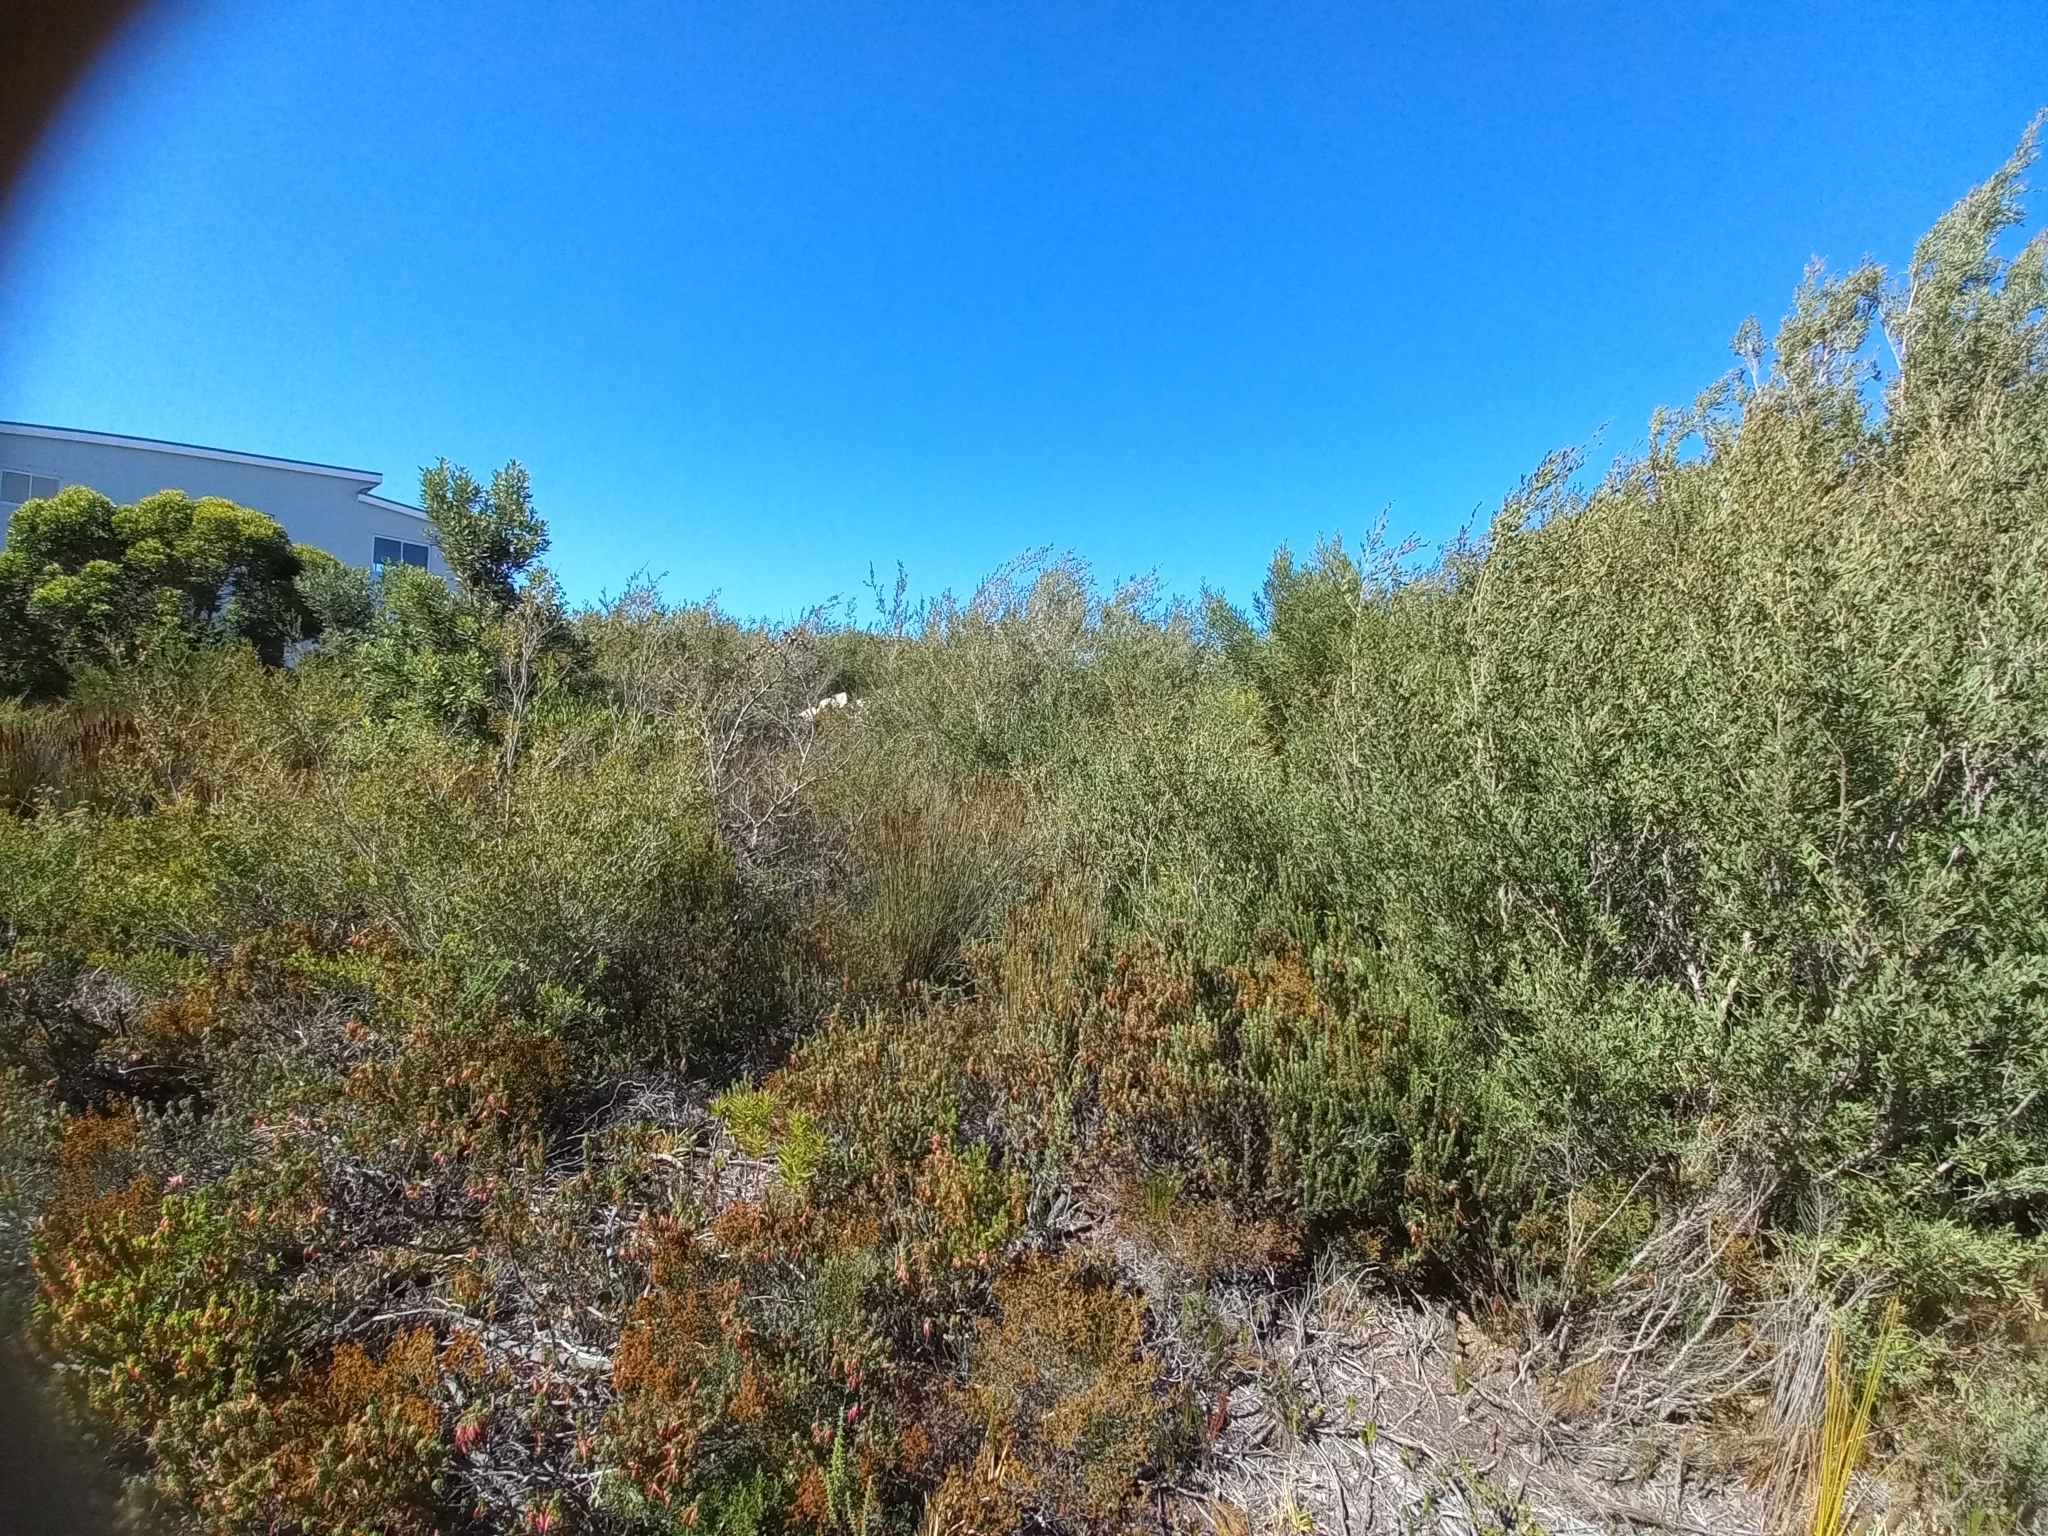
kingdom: Plantae
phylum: Tracheophyta
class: Magnoliopsida
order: Myrtales
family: Myrtaceae
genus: Leptospermum
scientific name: Leptospermum laevigatum
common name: Australian teatree
